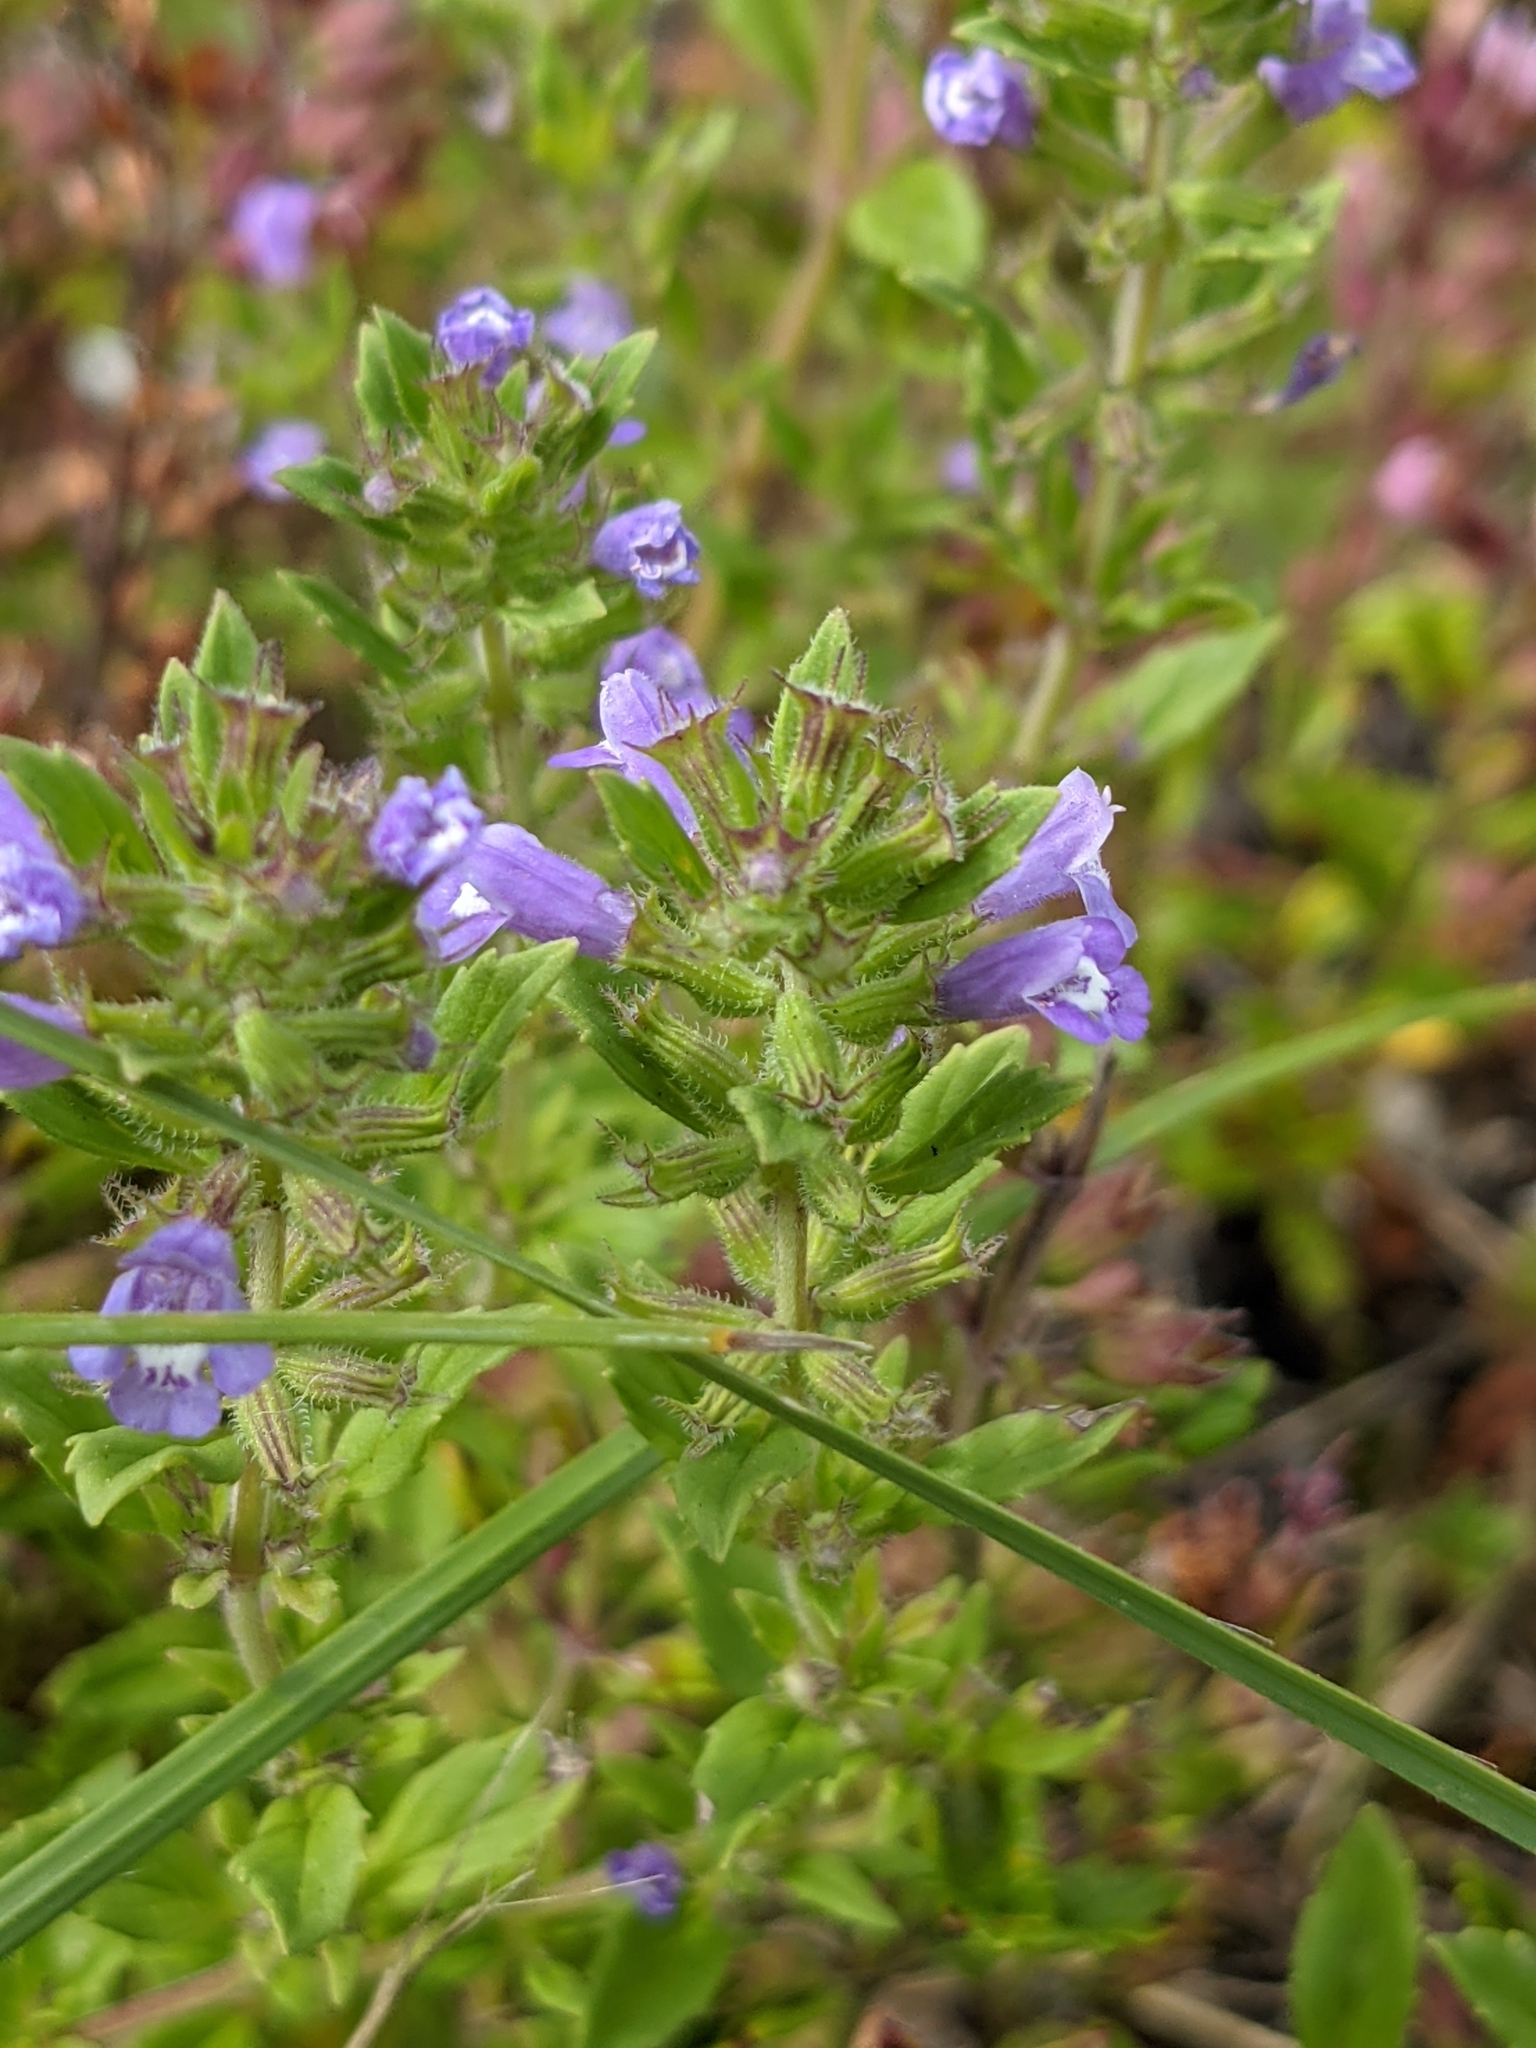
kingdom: Plantae
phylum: Tracheophyta
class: Magnoliopsida
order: Lamiales
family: Lamiaceae
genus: Clinopodium
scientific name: Clinopodium acinos
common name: Basil thyme
